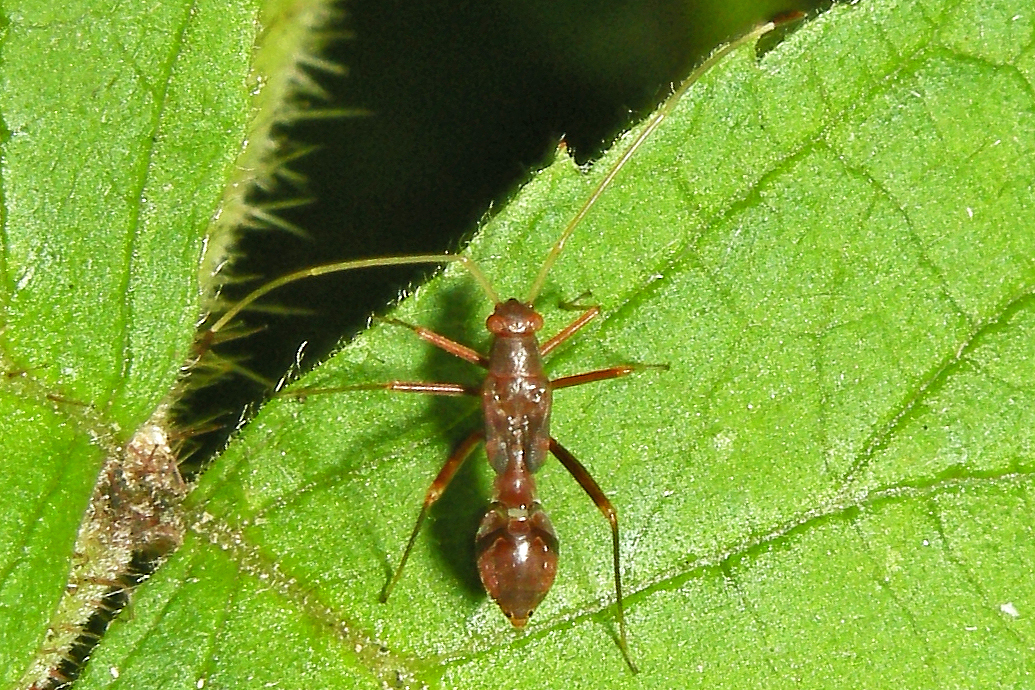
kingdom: Animalia
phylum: Arthropoda
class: Insecta
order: Hemiptera
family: Miridae
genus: Paraxenetus
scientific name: Paraxenetus guttulatus
